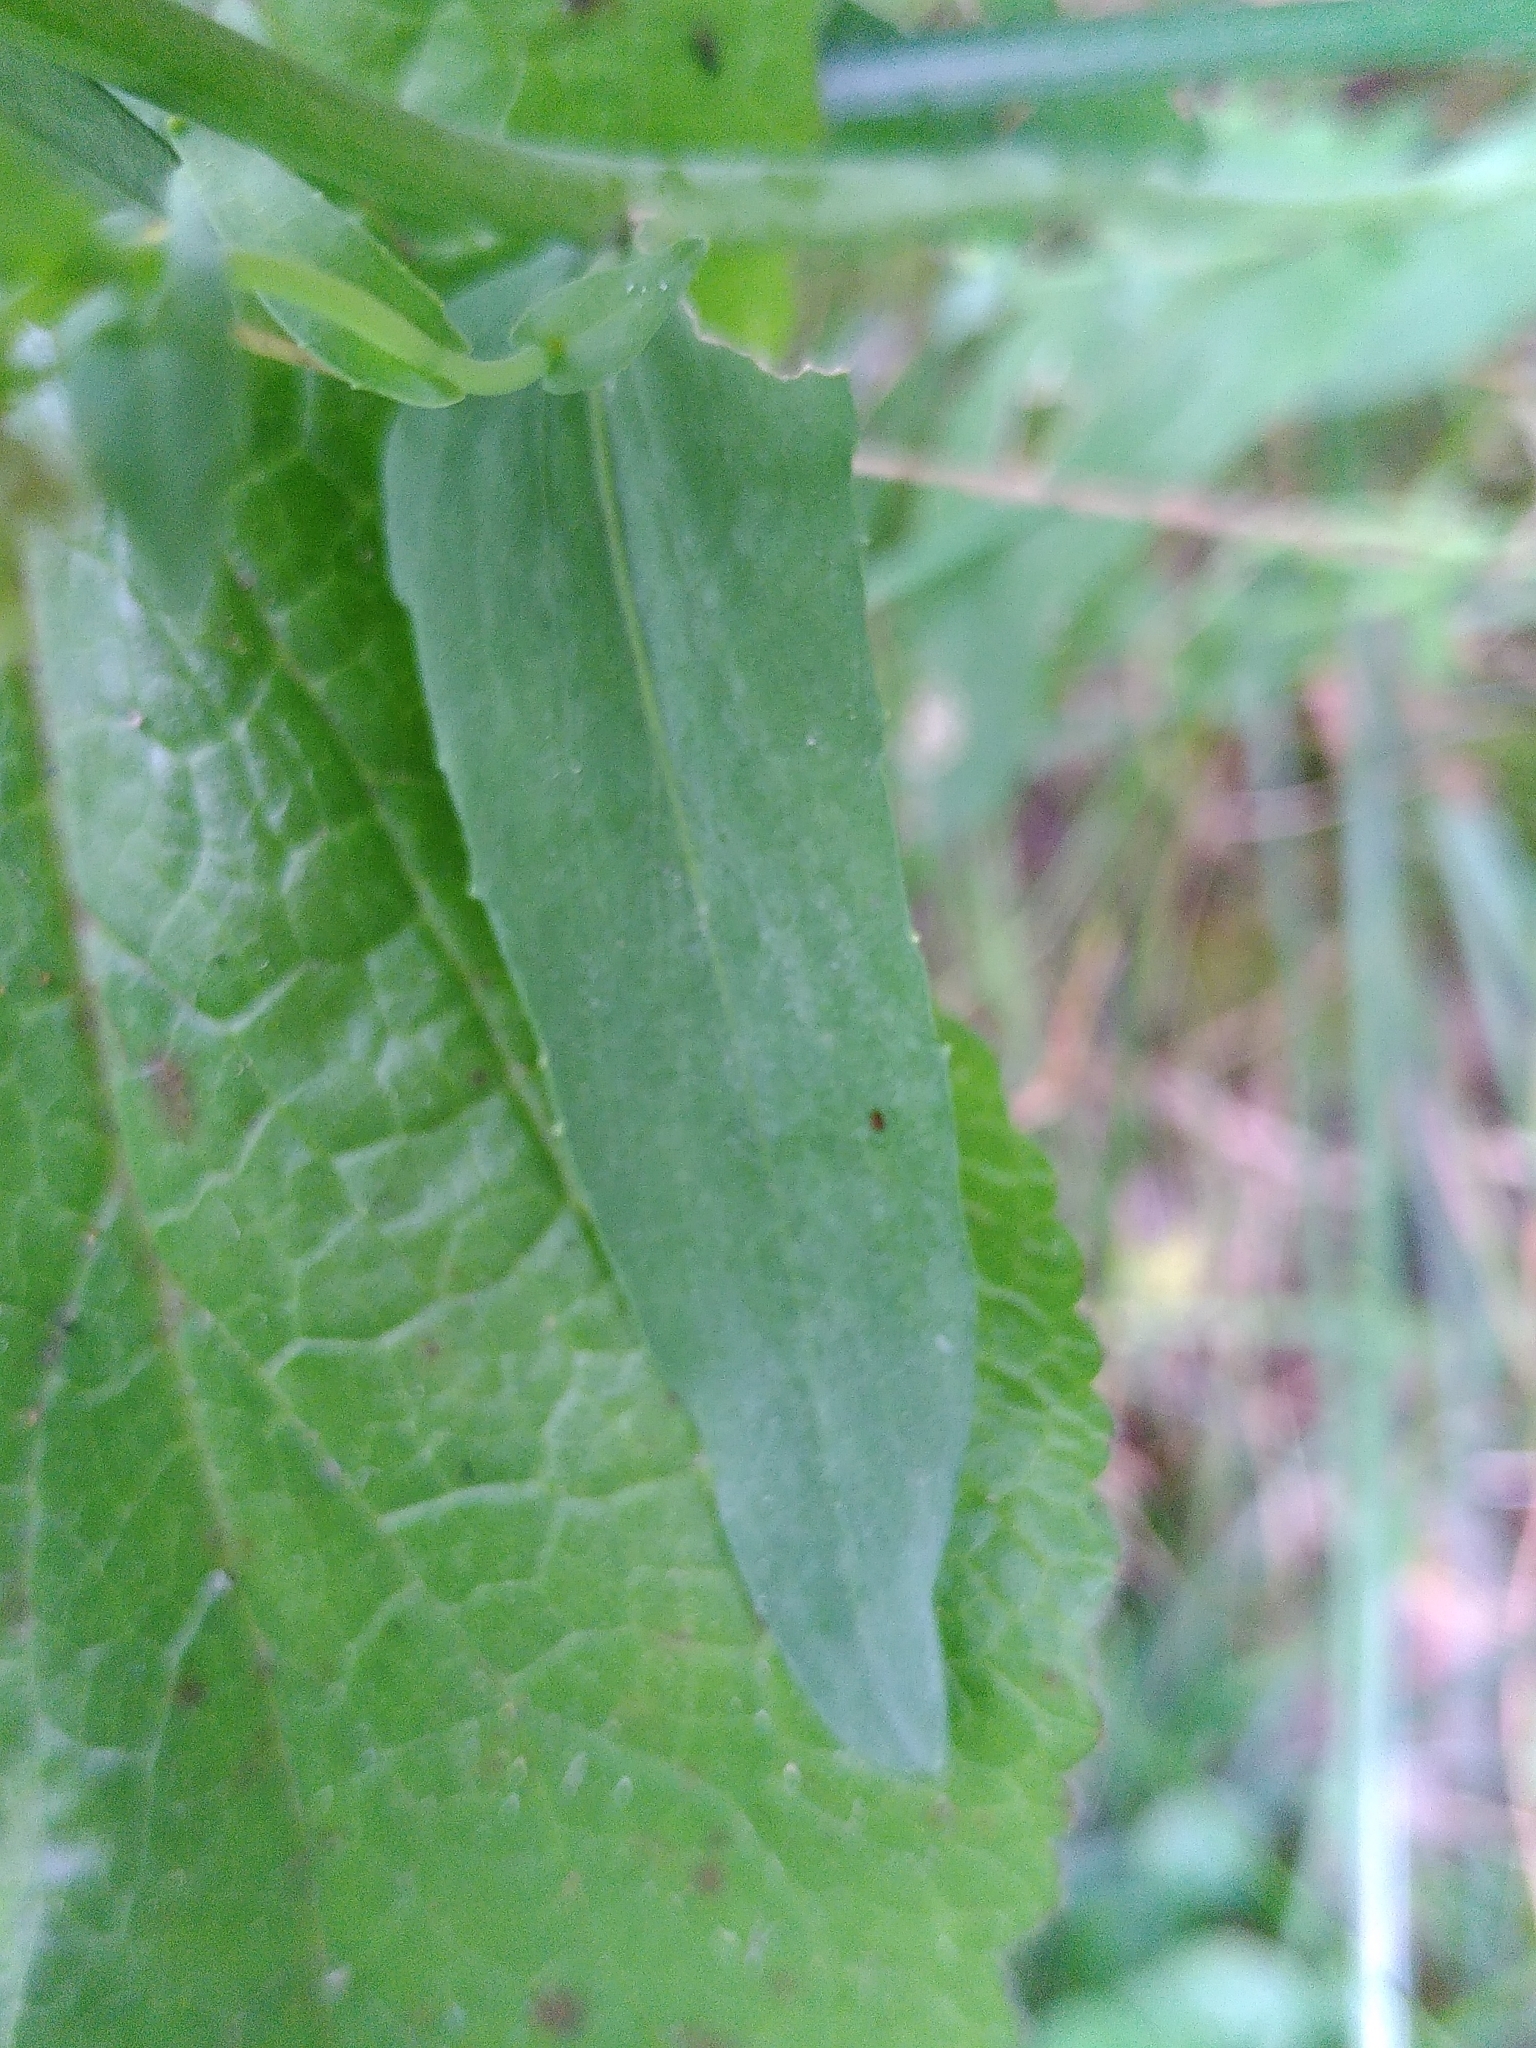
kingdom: Plantae
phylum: Tracheophyta
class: Magnoliopsida
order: Brassicales
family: Brassicaceae
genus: Noccaea
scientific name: Noccaea caerulescens
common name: Alpine pennycress
